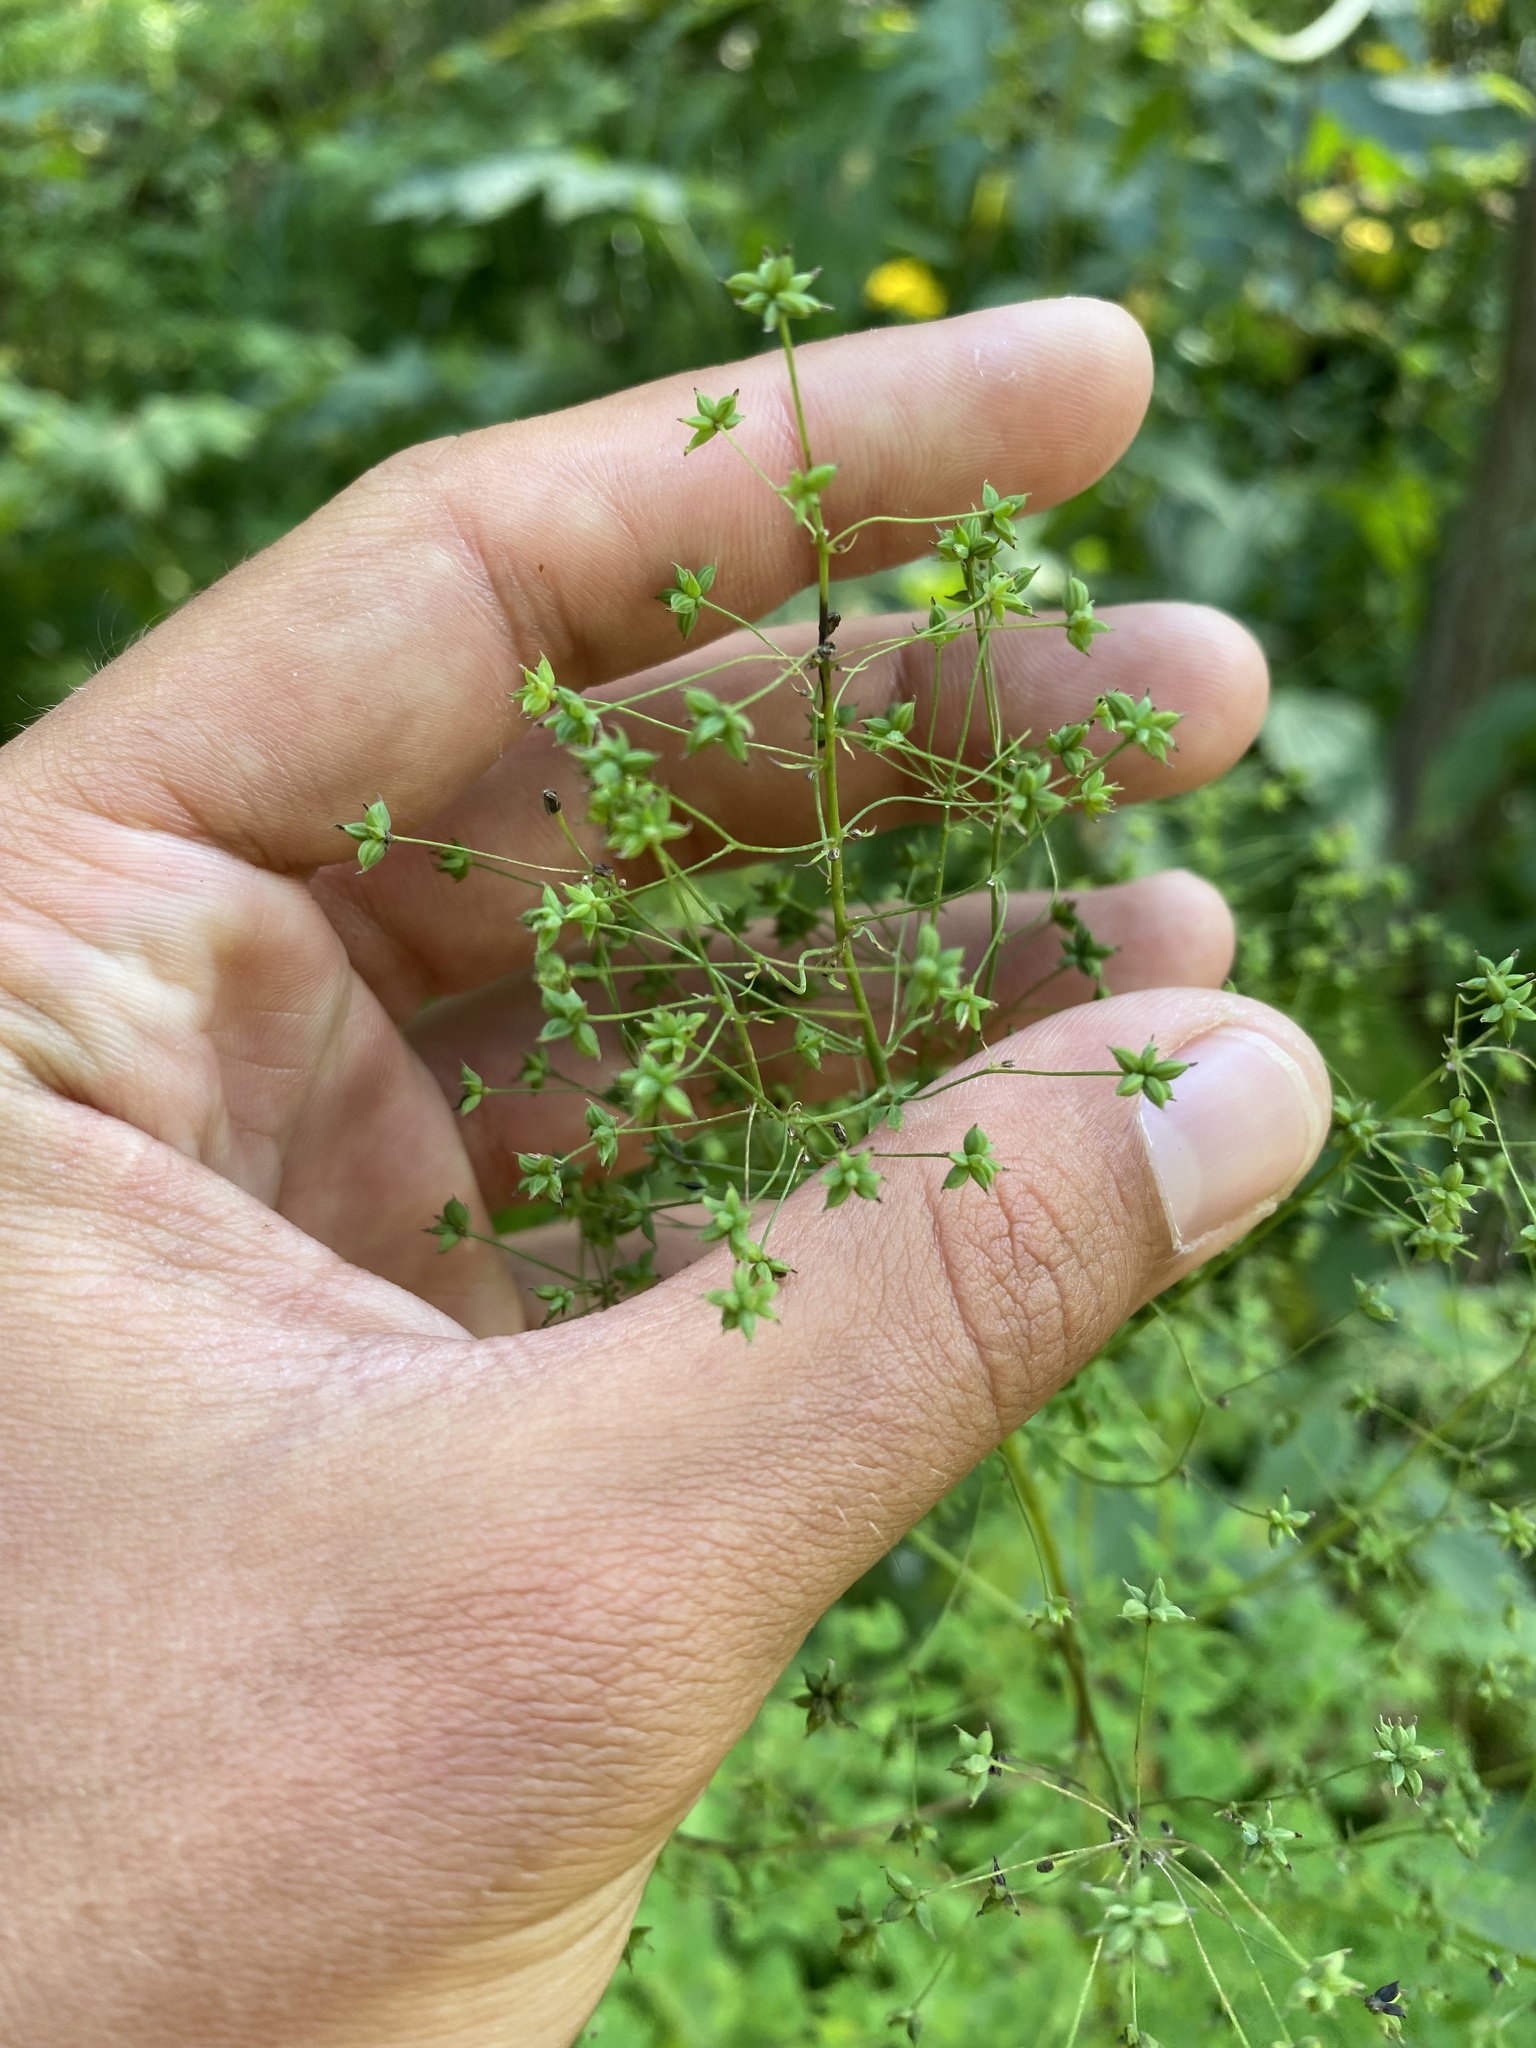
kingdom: Plantae
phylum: Tracheophyta
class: Magnoliopsida
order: Ranunculales
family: Ranunculaceae
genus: Thalictrum
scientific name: Thalictrum minus
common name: Lesser meadow-rue
